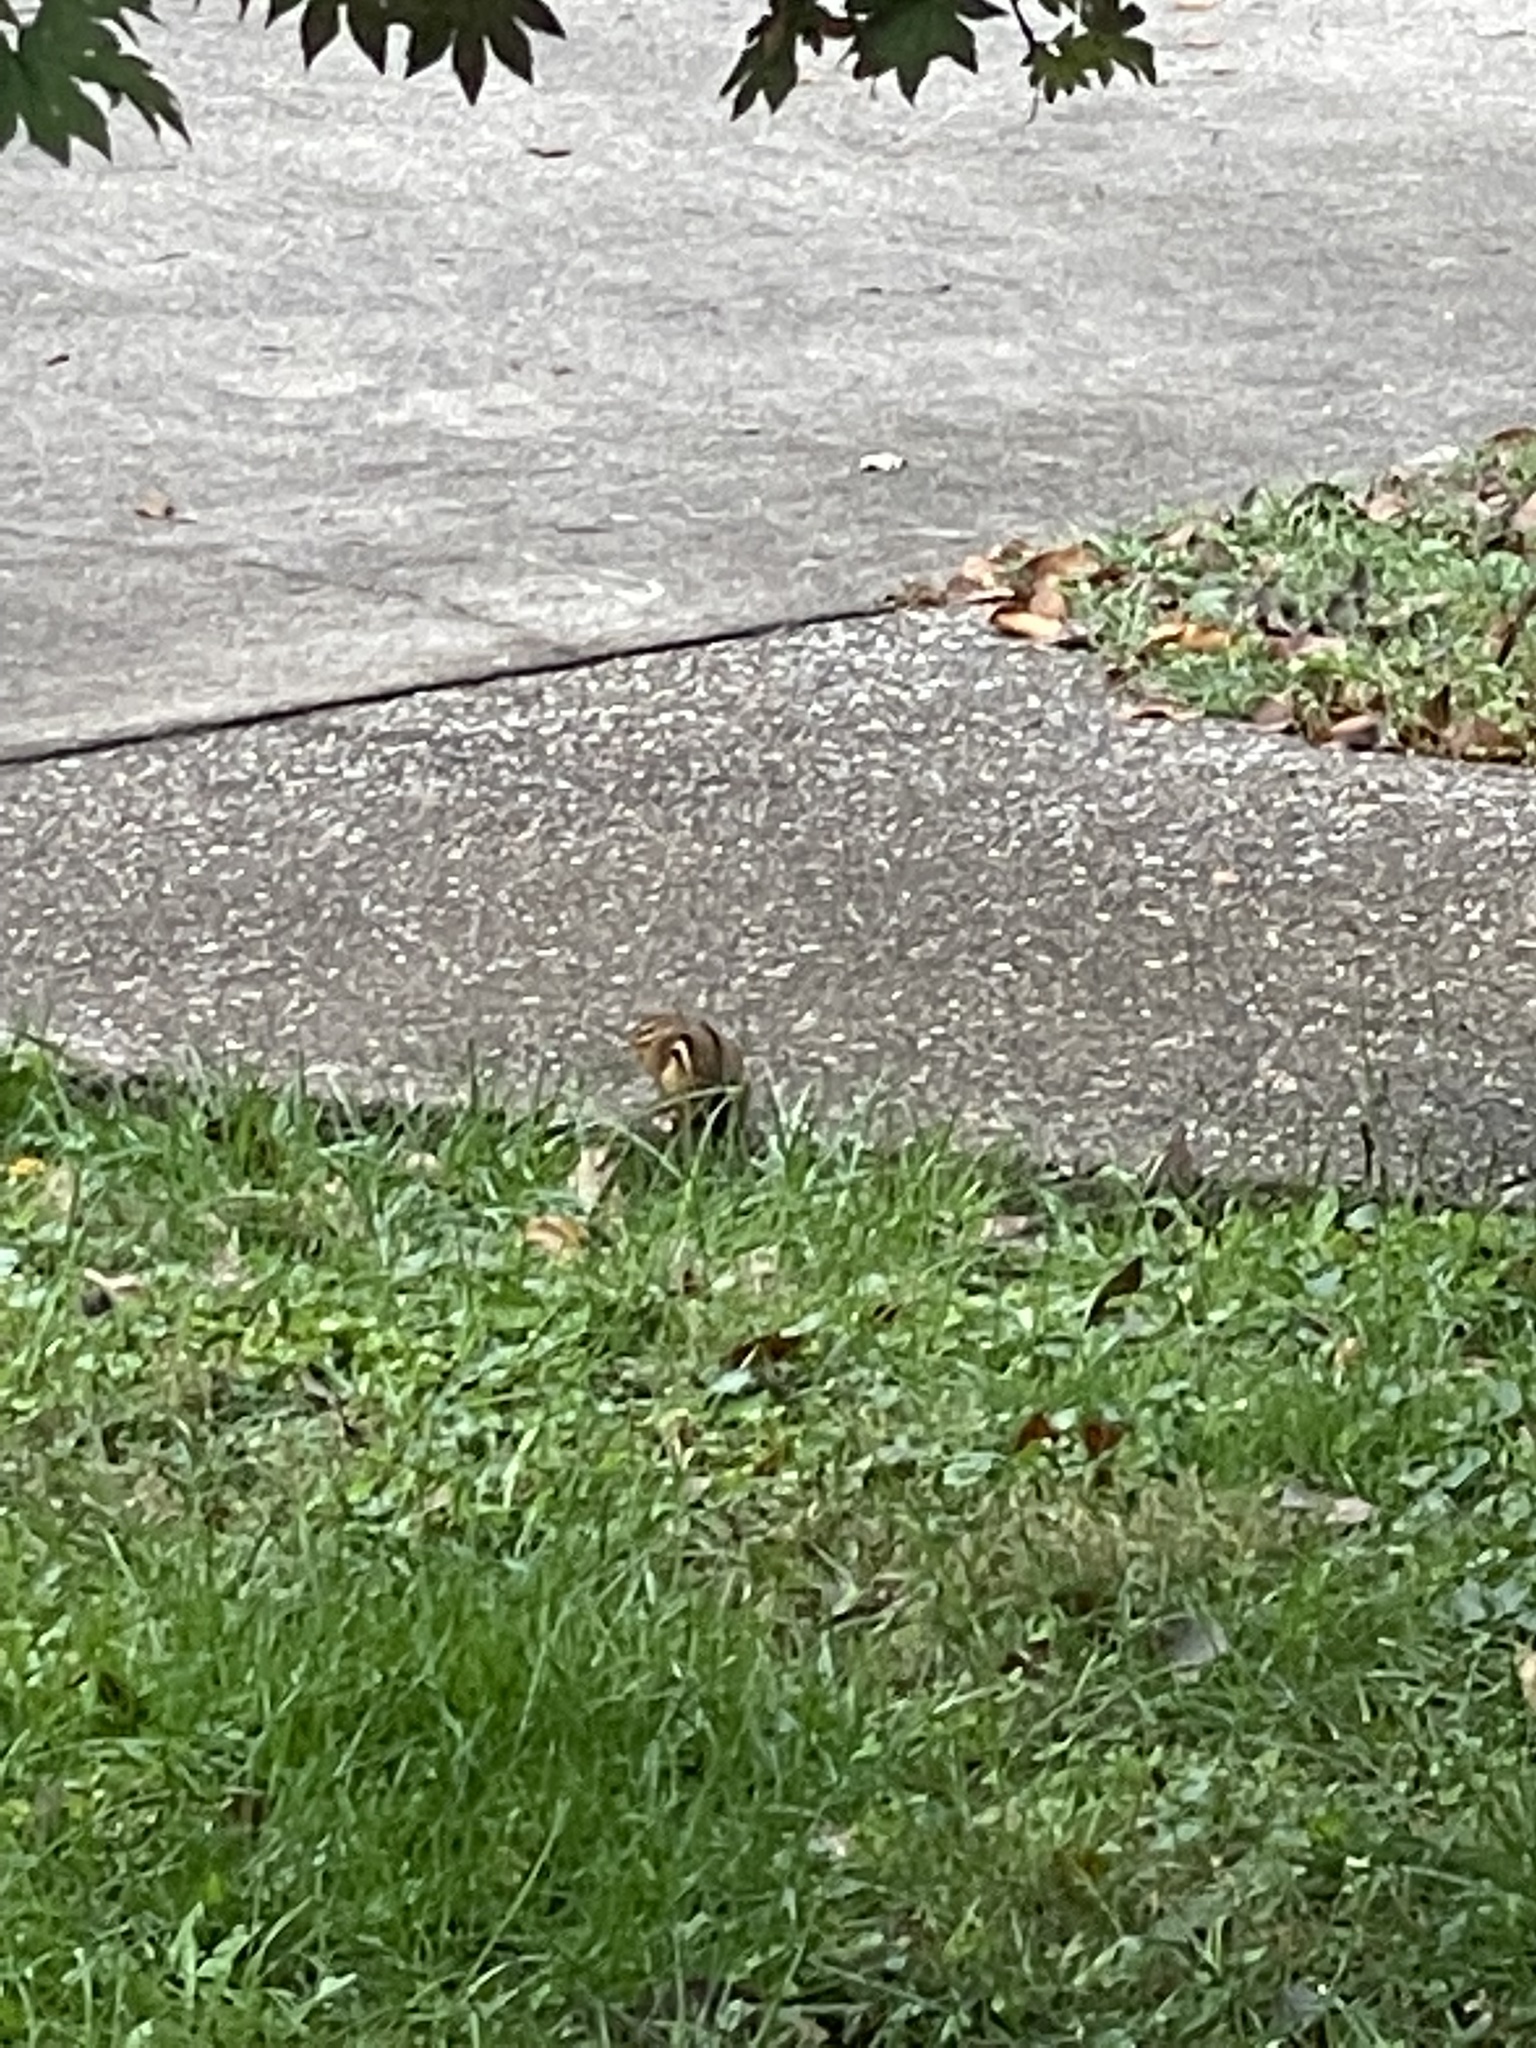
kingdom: Animalia
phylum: Chordata
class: Mammalia
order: Rodentia
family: Sciuridae
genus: Tamias
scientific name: Tamias striatus
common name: Eastern chipmunk
